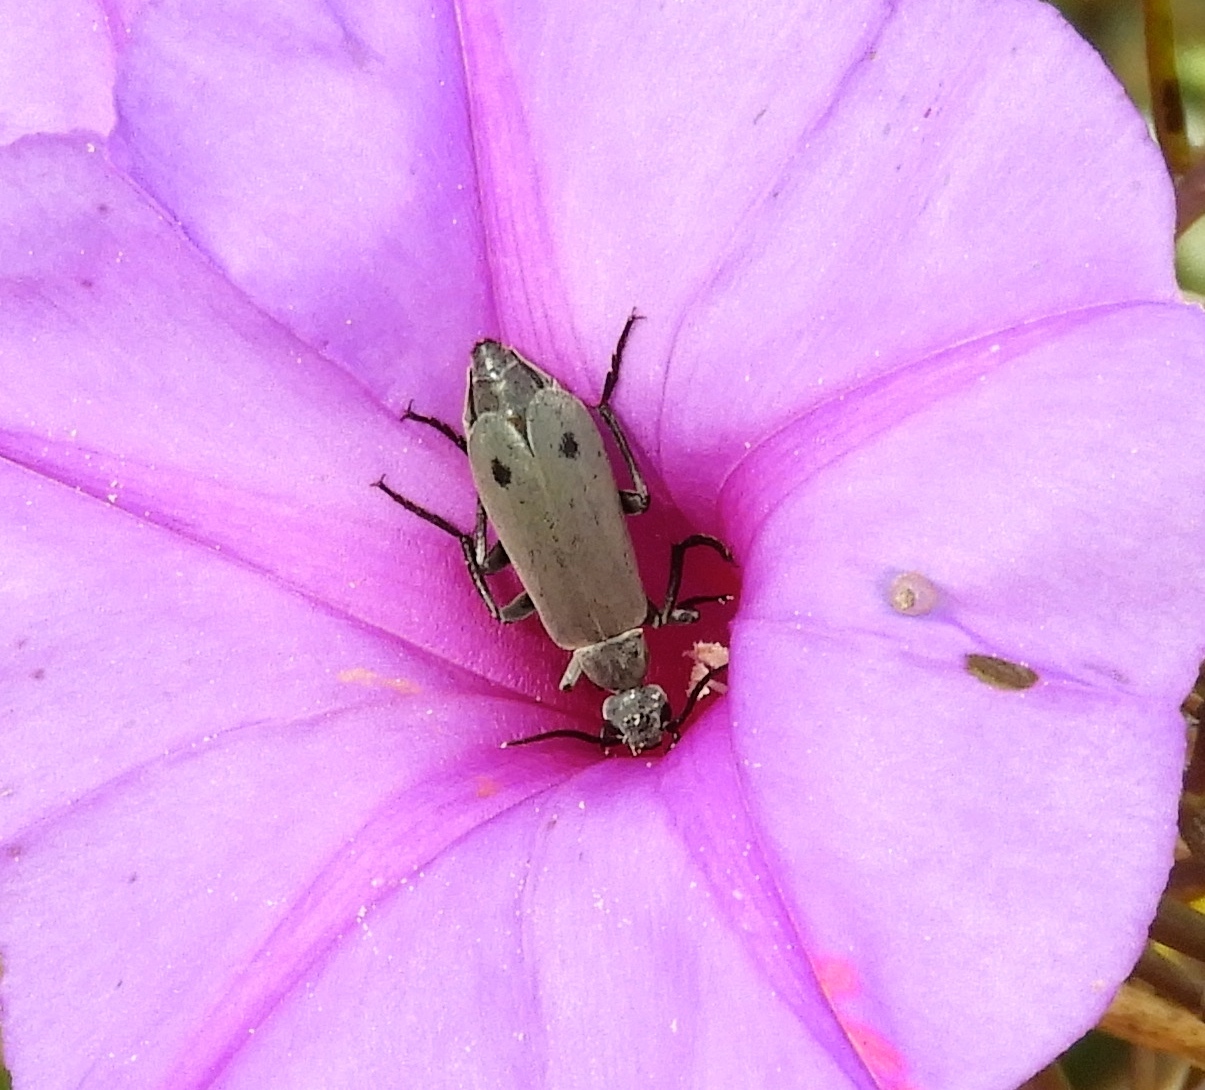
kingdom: Animalia
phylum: Arthropoda
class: Insecta
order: Coleoptera
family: Meloidae
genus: Epicauta
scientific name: Epicauta bipunctata
